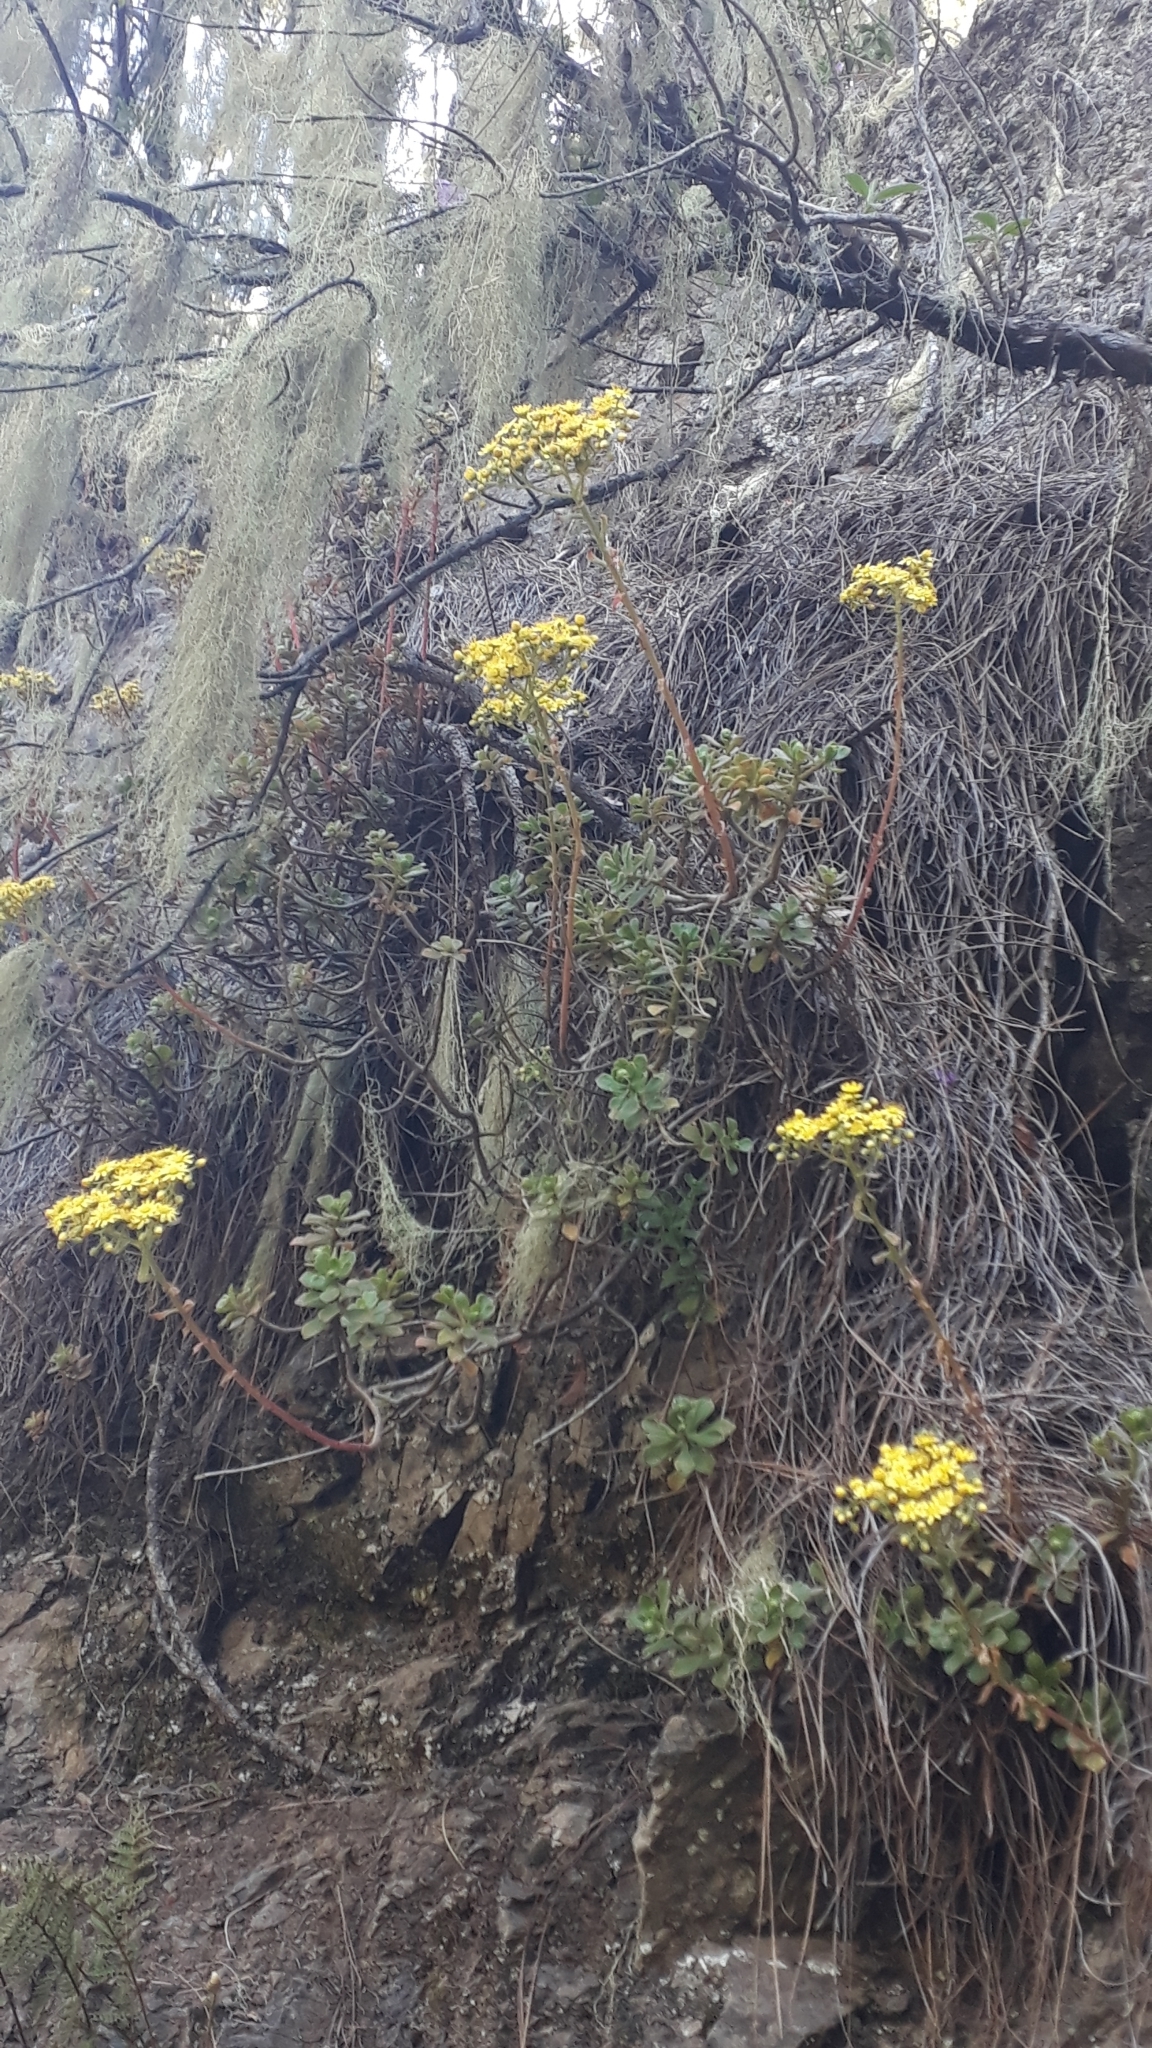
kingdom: Plantae
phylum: Tracheophyta
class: Magnoliopsida
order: Saxifragales
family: Crassulaceae
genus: Aeonium
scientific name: Aeonium spathulatum
